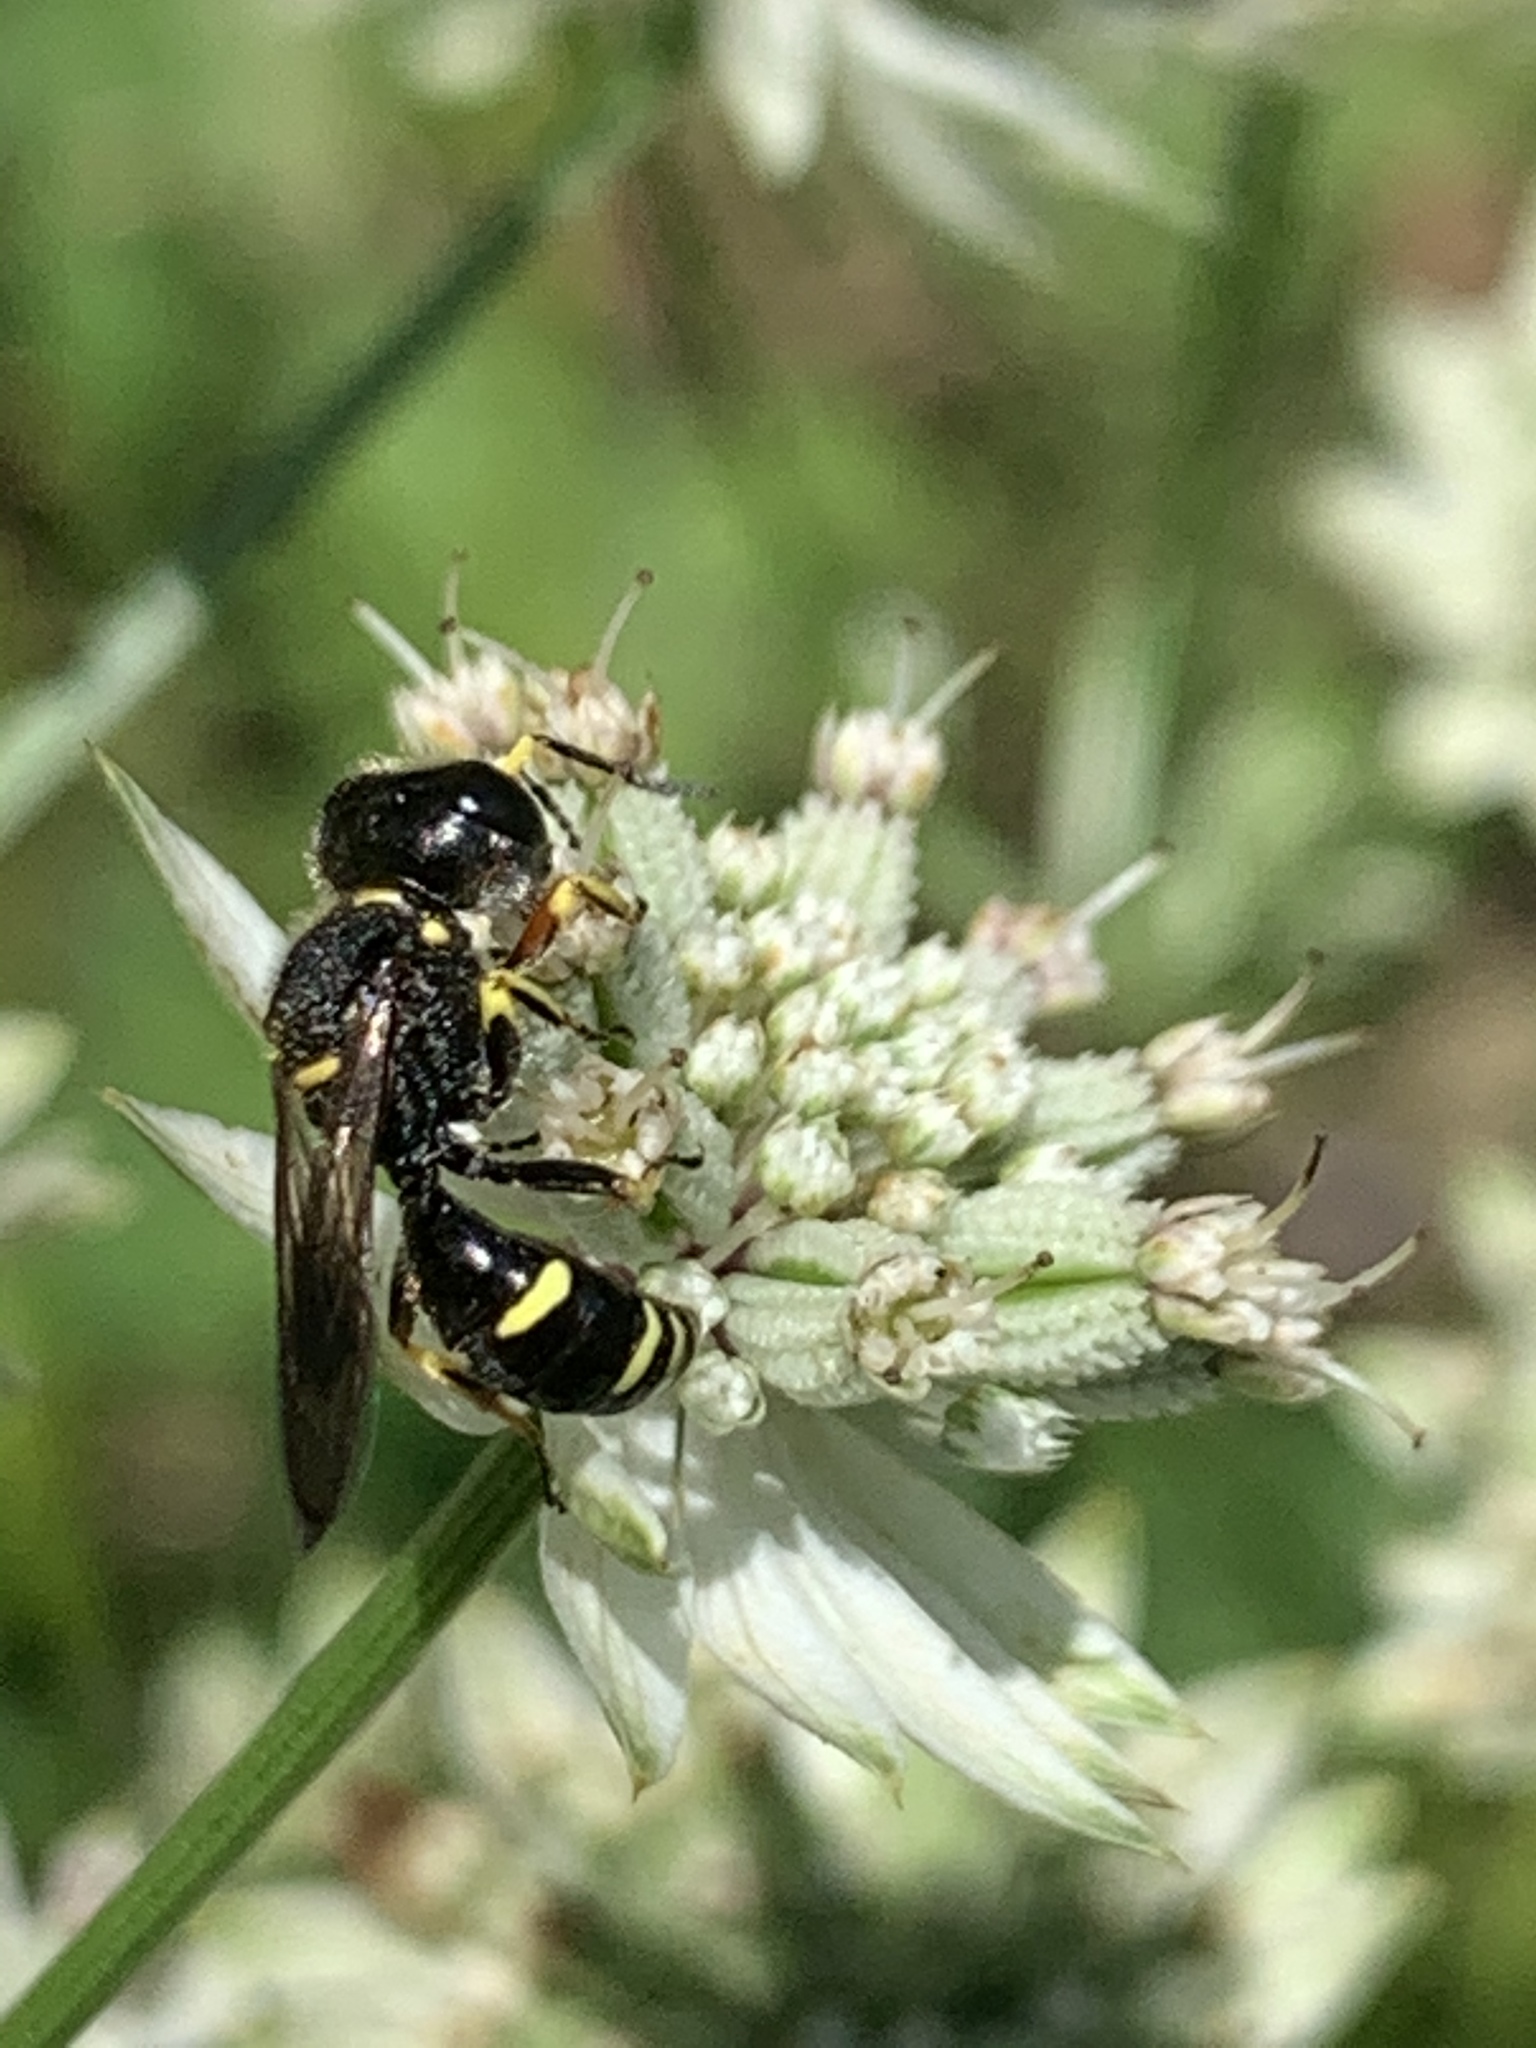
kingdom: Animalia
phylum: Arthropoda
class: Insecta
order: Hymenoptera
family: Crabronidae
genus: Ectemnius
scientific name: Ectemnius continuus
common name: Common ectemnius
